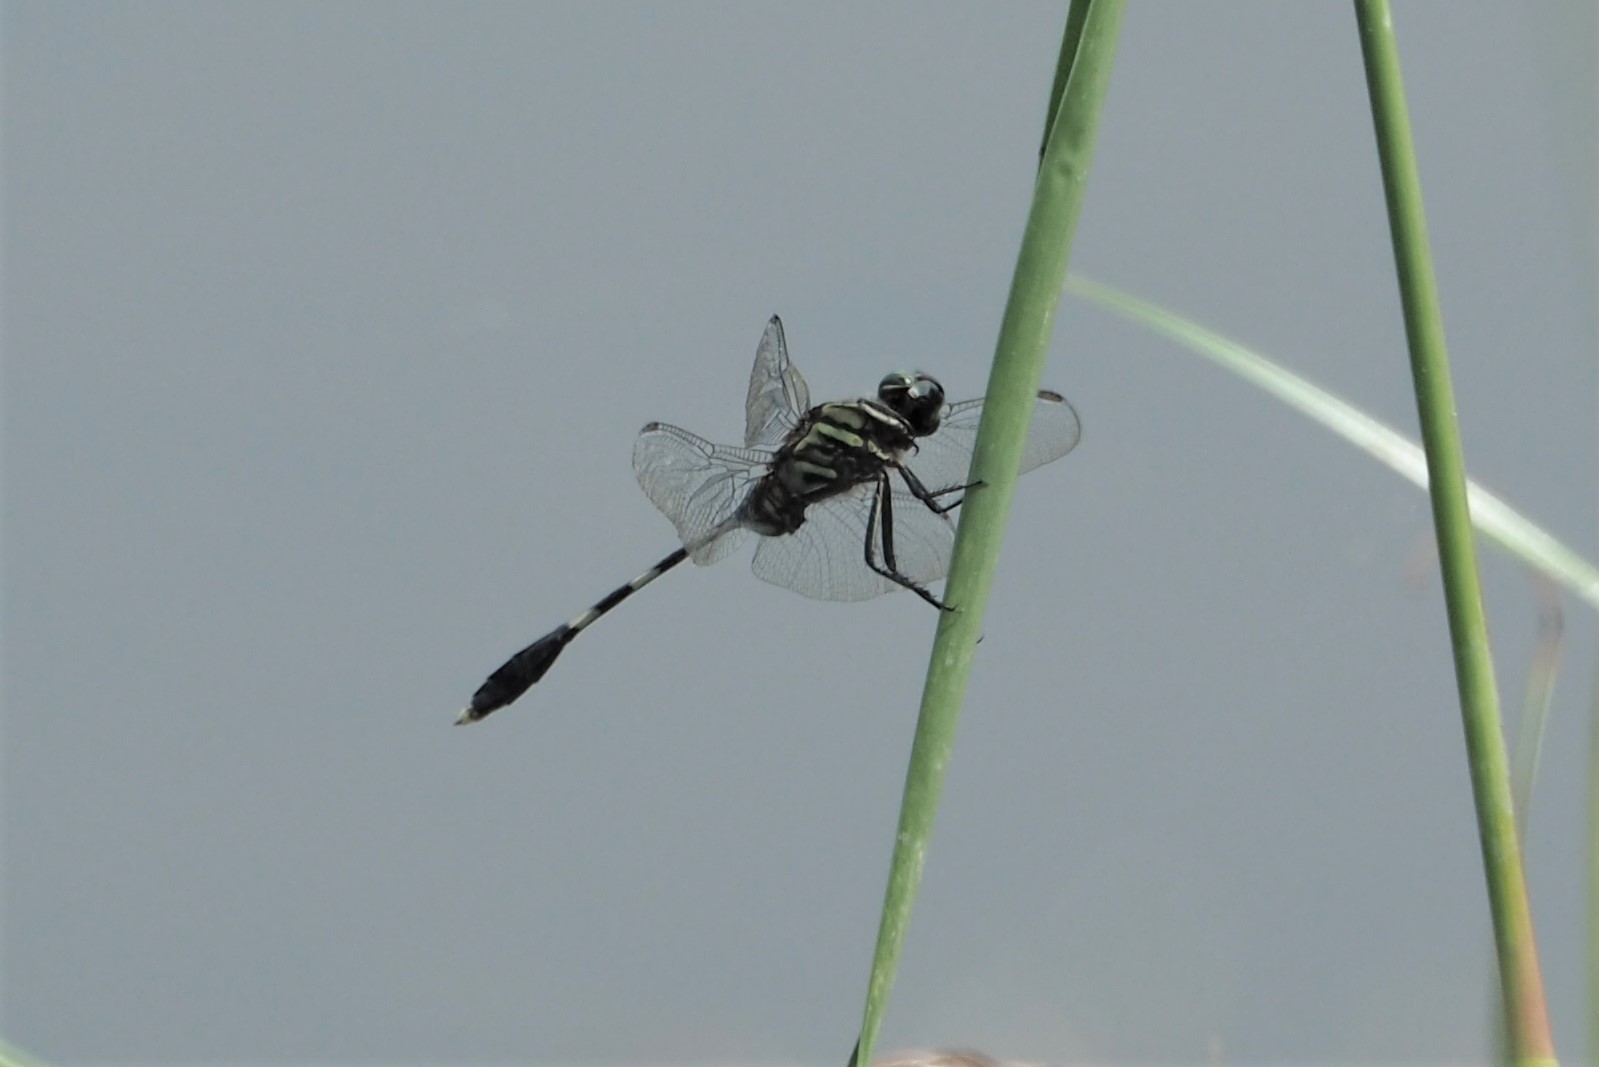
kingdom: Animalia
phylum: Arthropoda
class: Insecta
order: Odonata
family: Libellulidae
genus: Orthetrum
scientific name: Orthetrum sabina
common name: Slender skimmer
